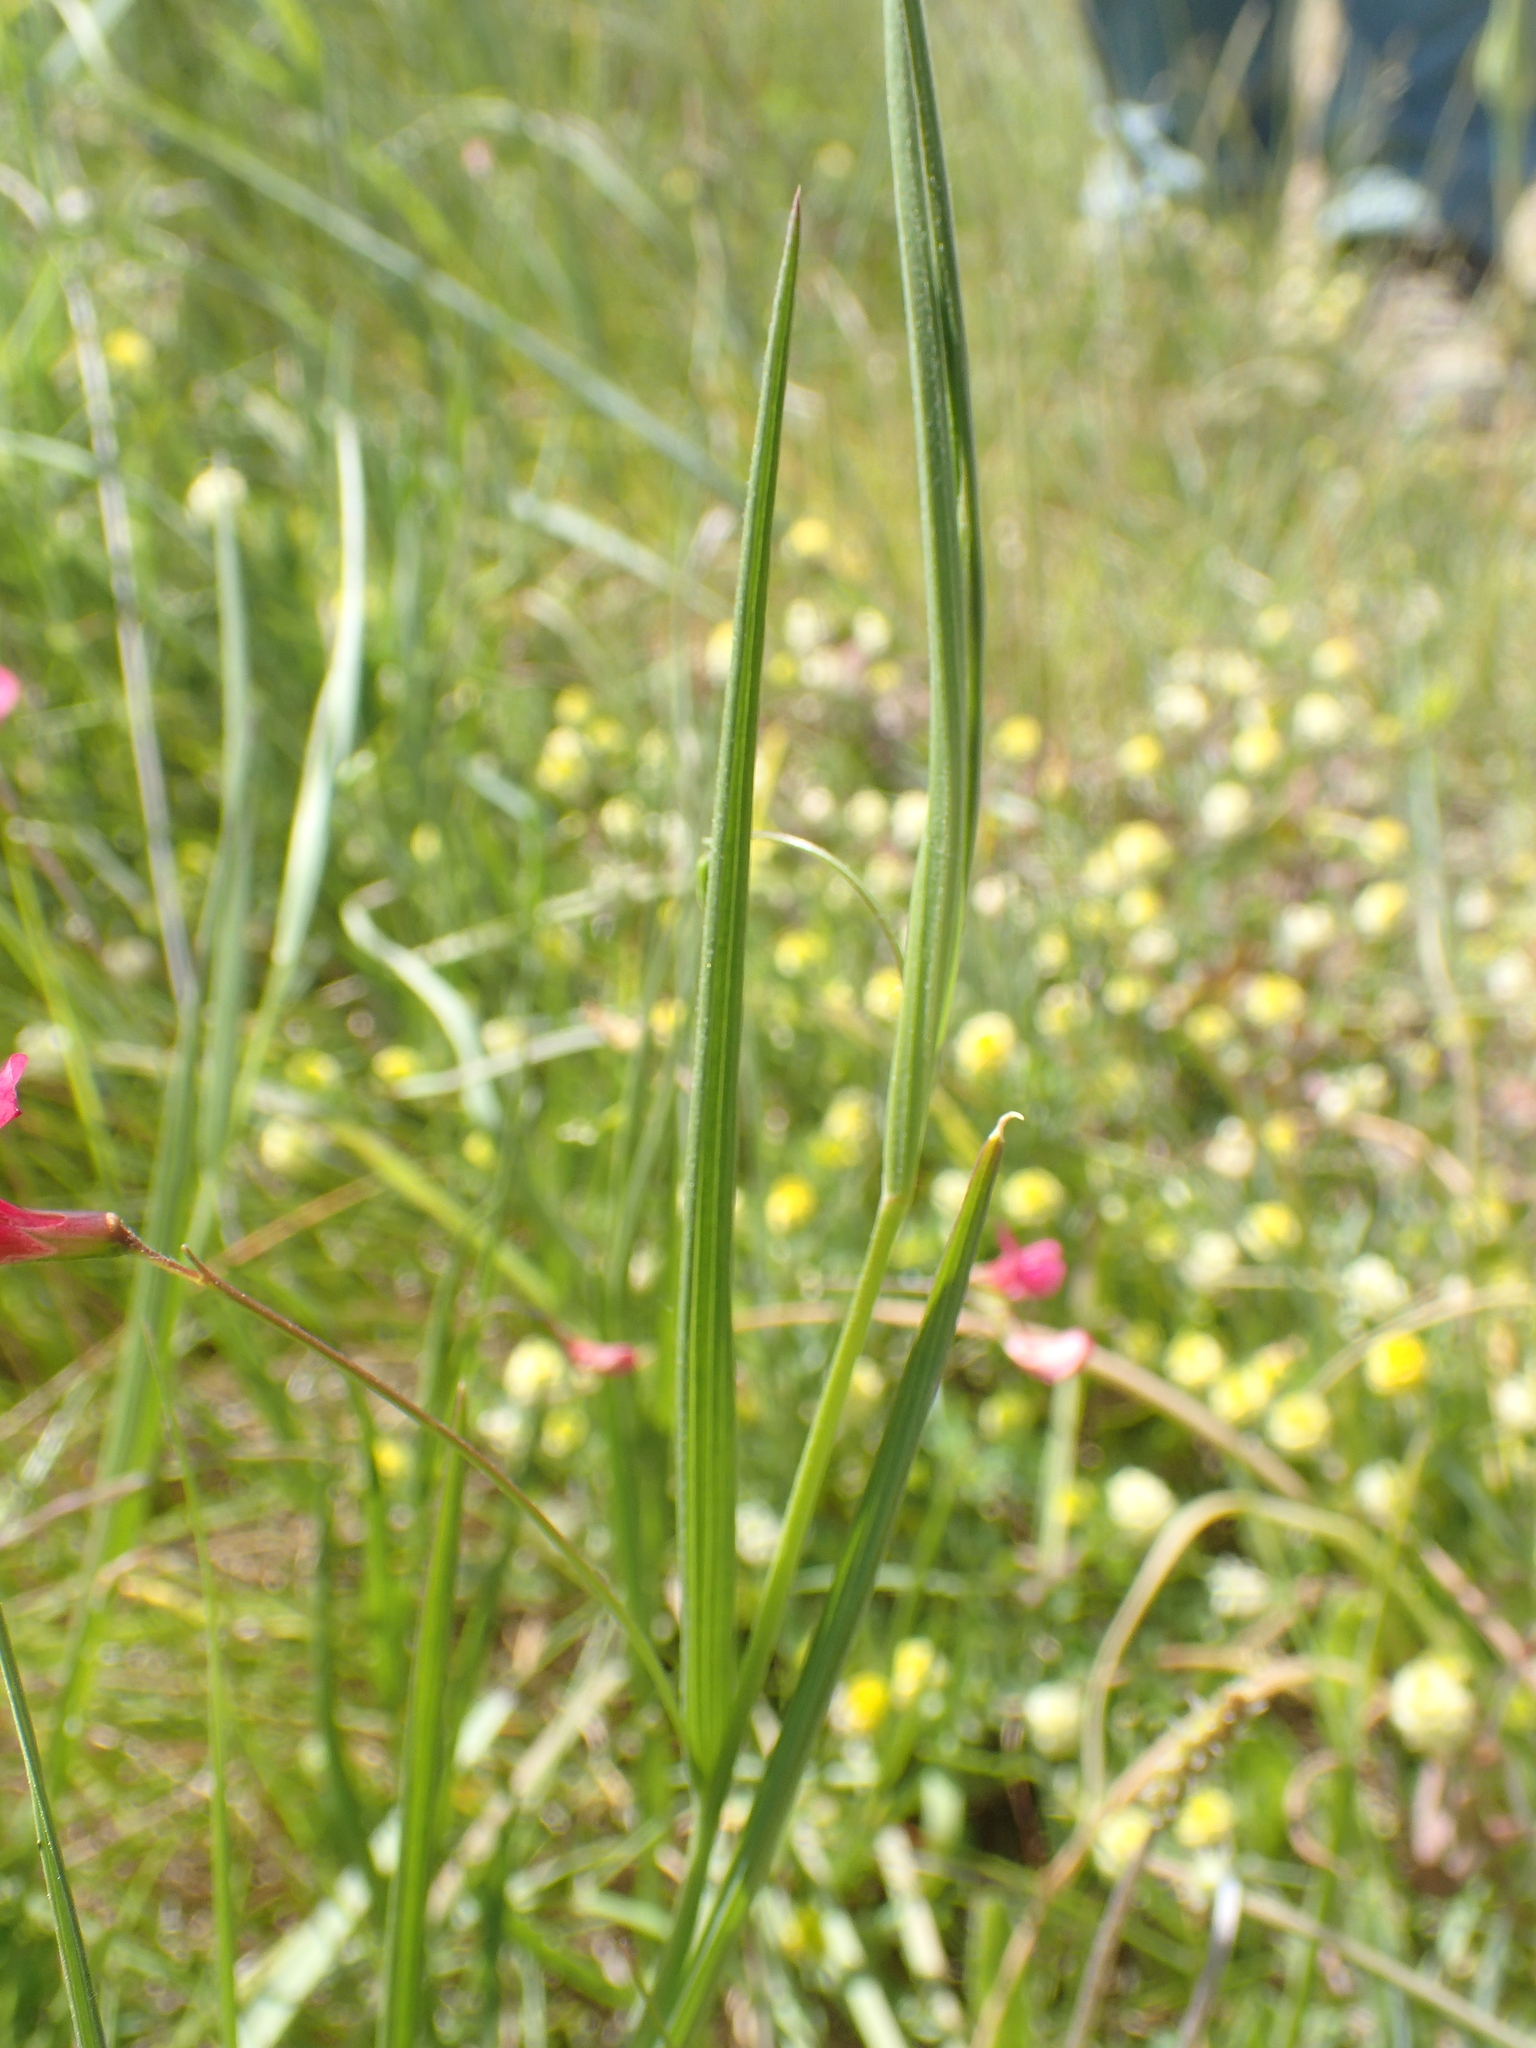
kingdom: Plantae
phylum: Tracheophyta
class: Magnoliopsida
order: Fabales
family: Fabaceae
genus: Lathyrus
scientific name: Lathyrus nissolia
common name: Grass vetchling
